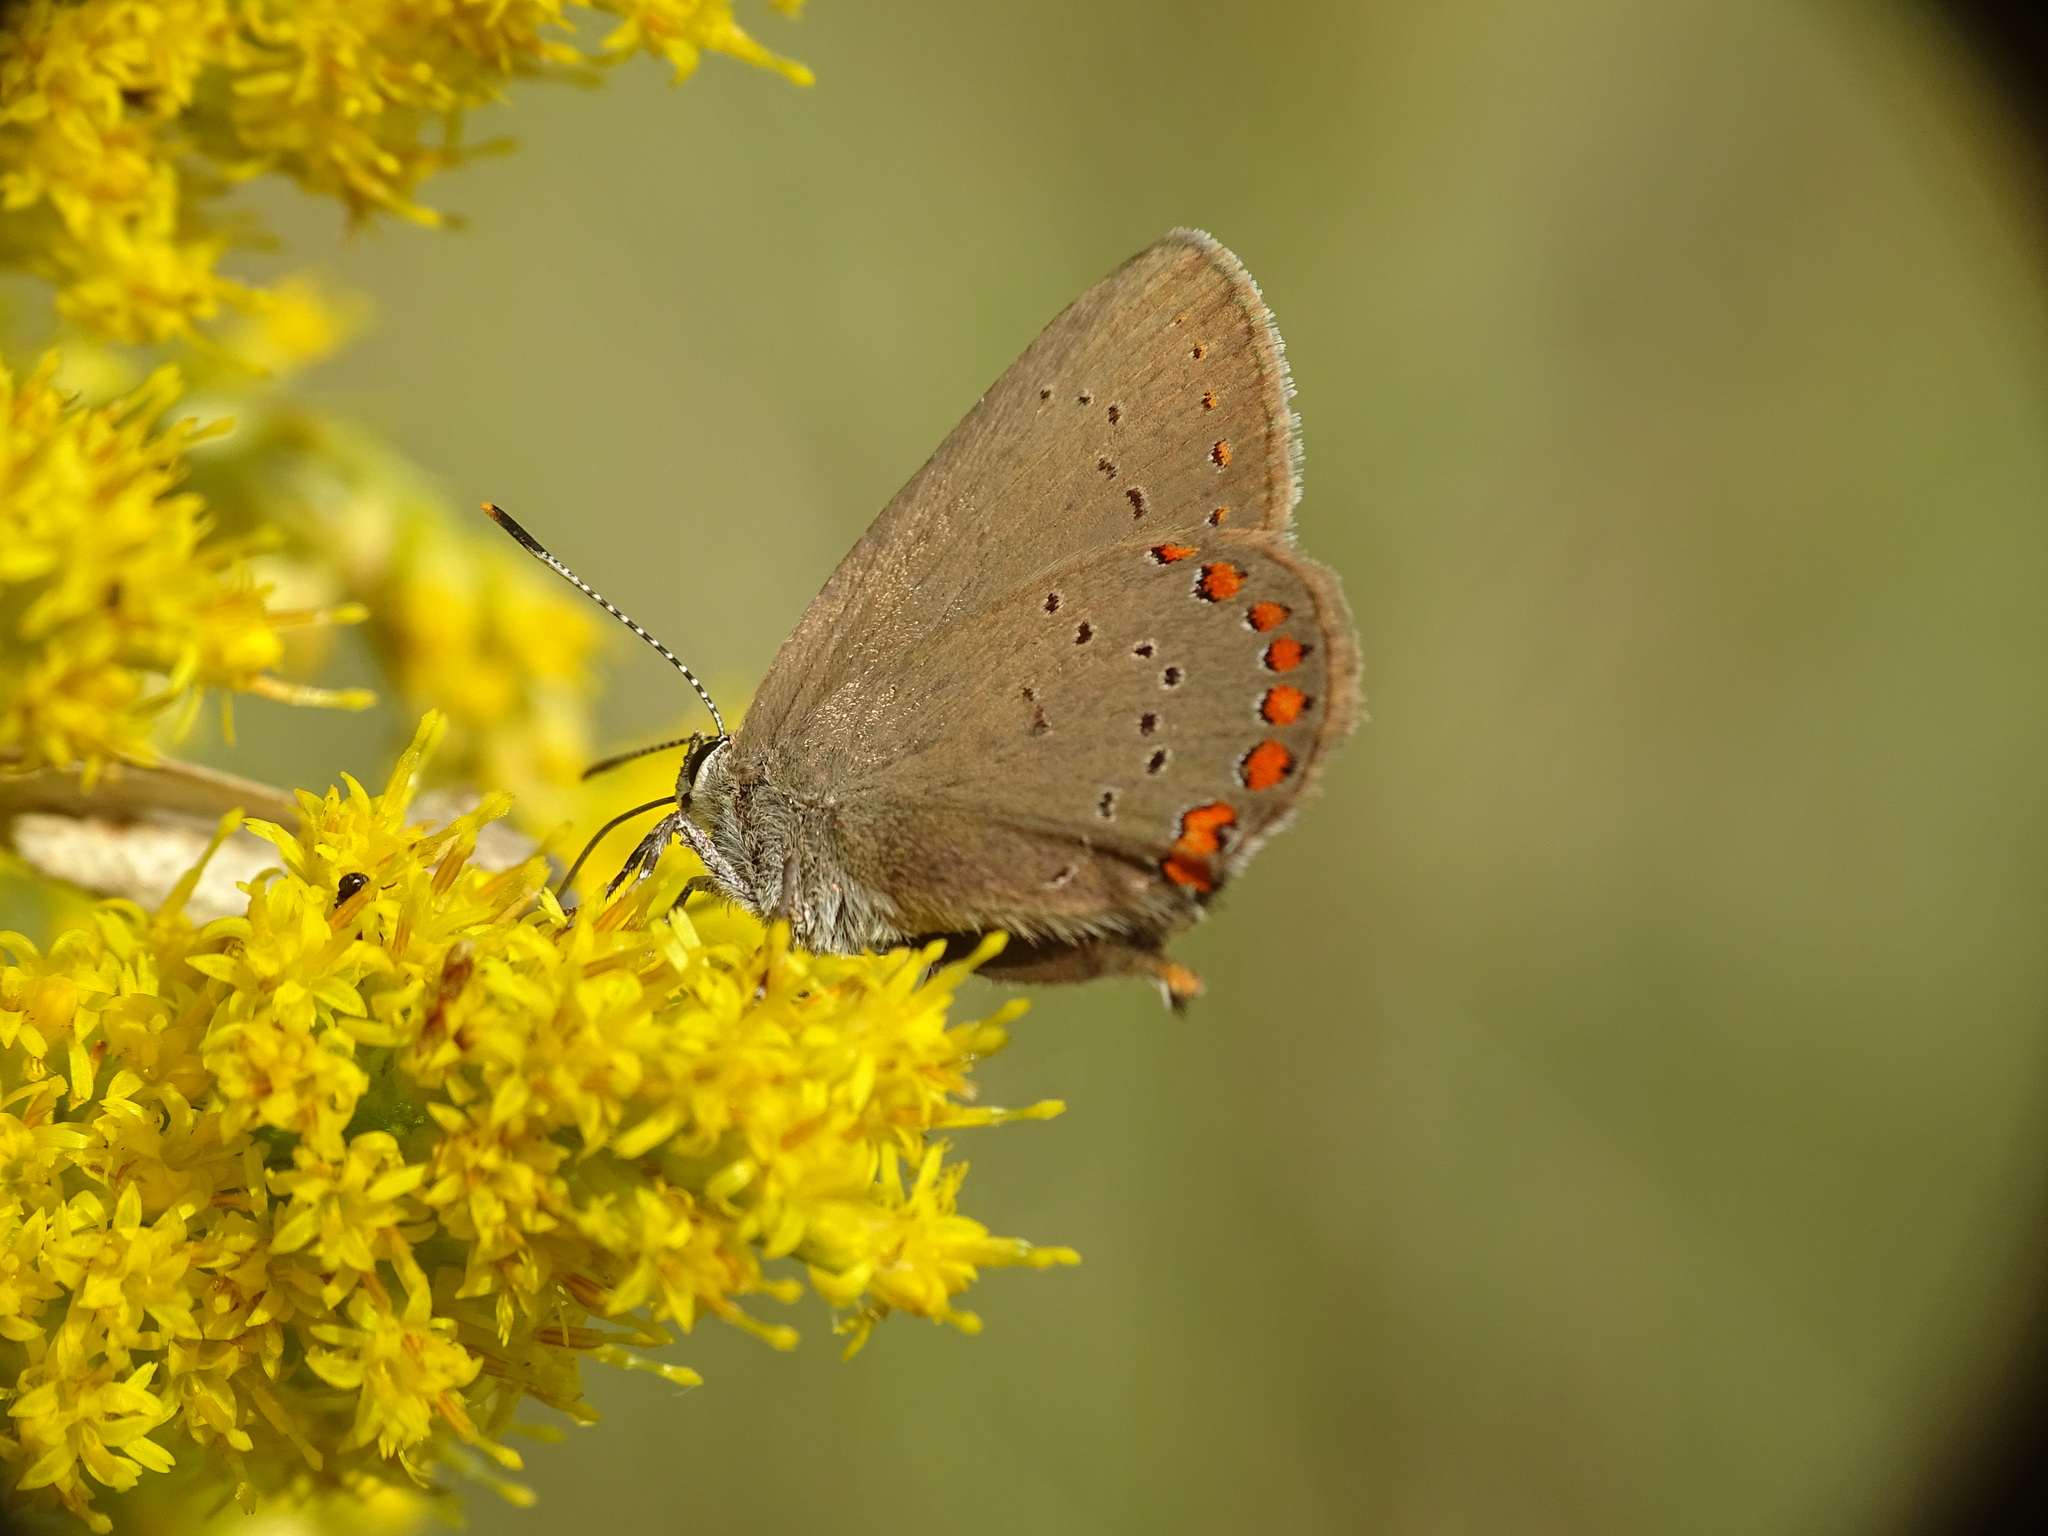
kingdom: Animalia
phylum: Arthropoda
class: Insecta
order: Lepidoptera
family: Lycaenidae
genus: Harkenclenus
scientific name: Harkenclenus titus
